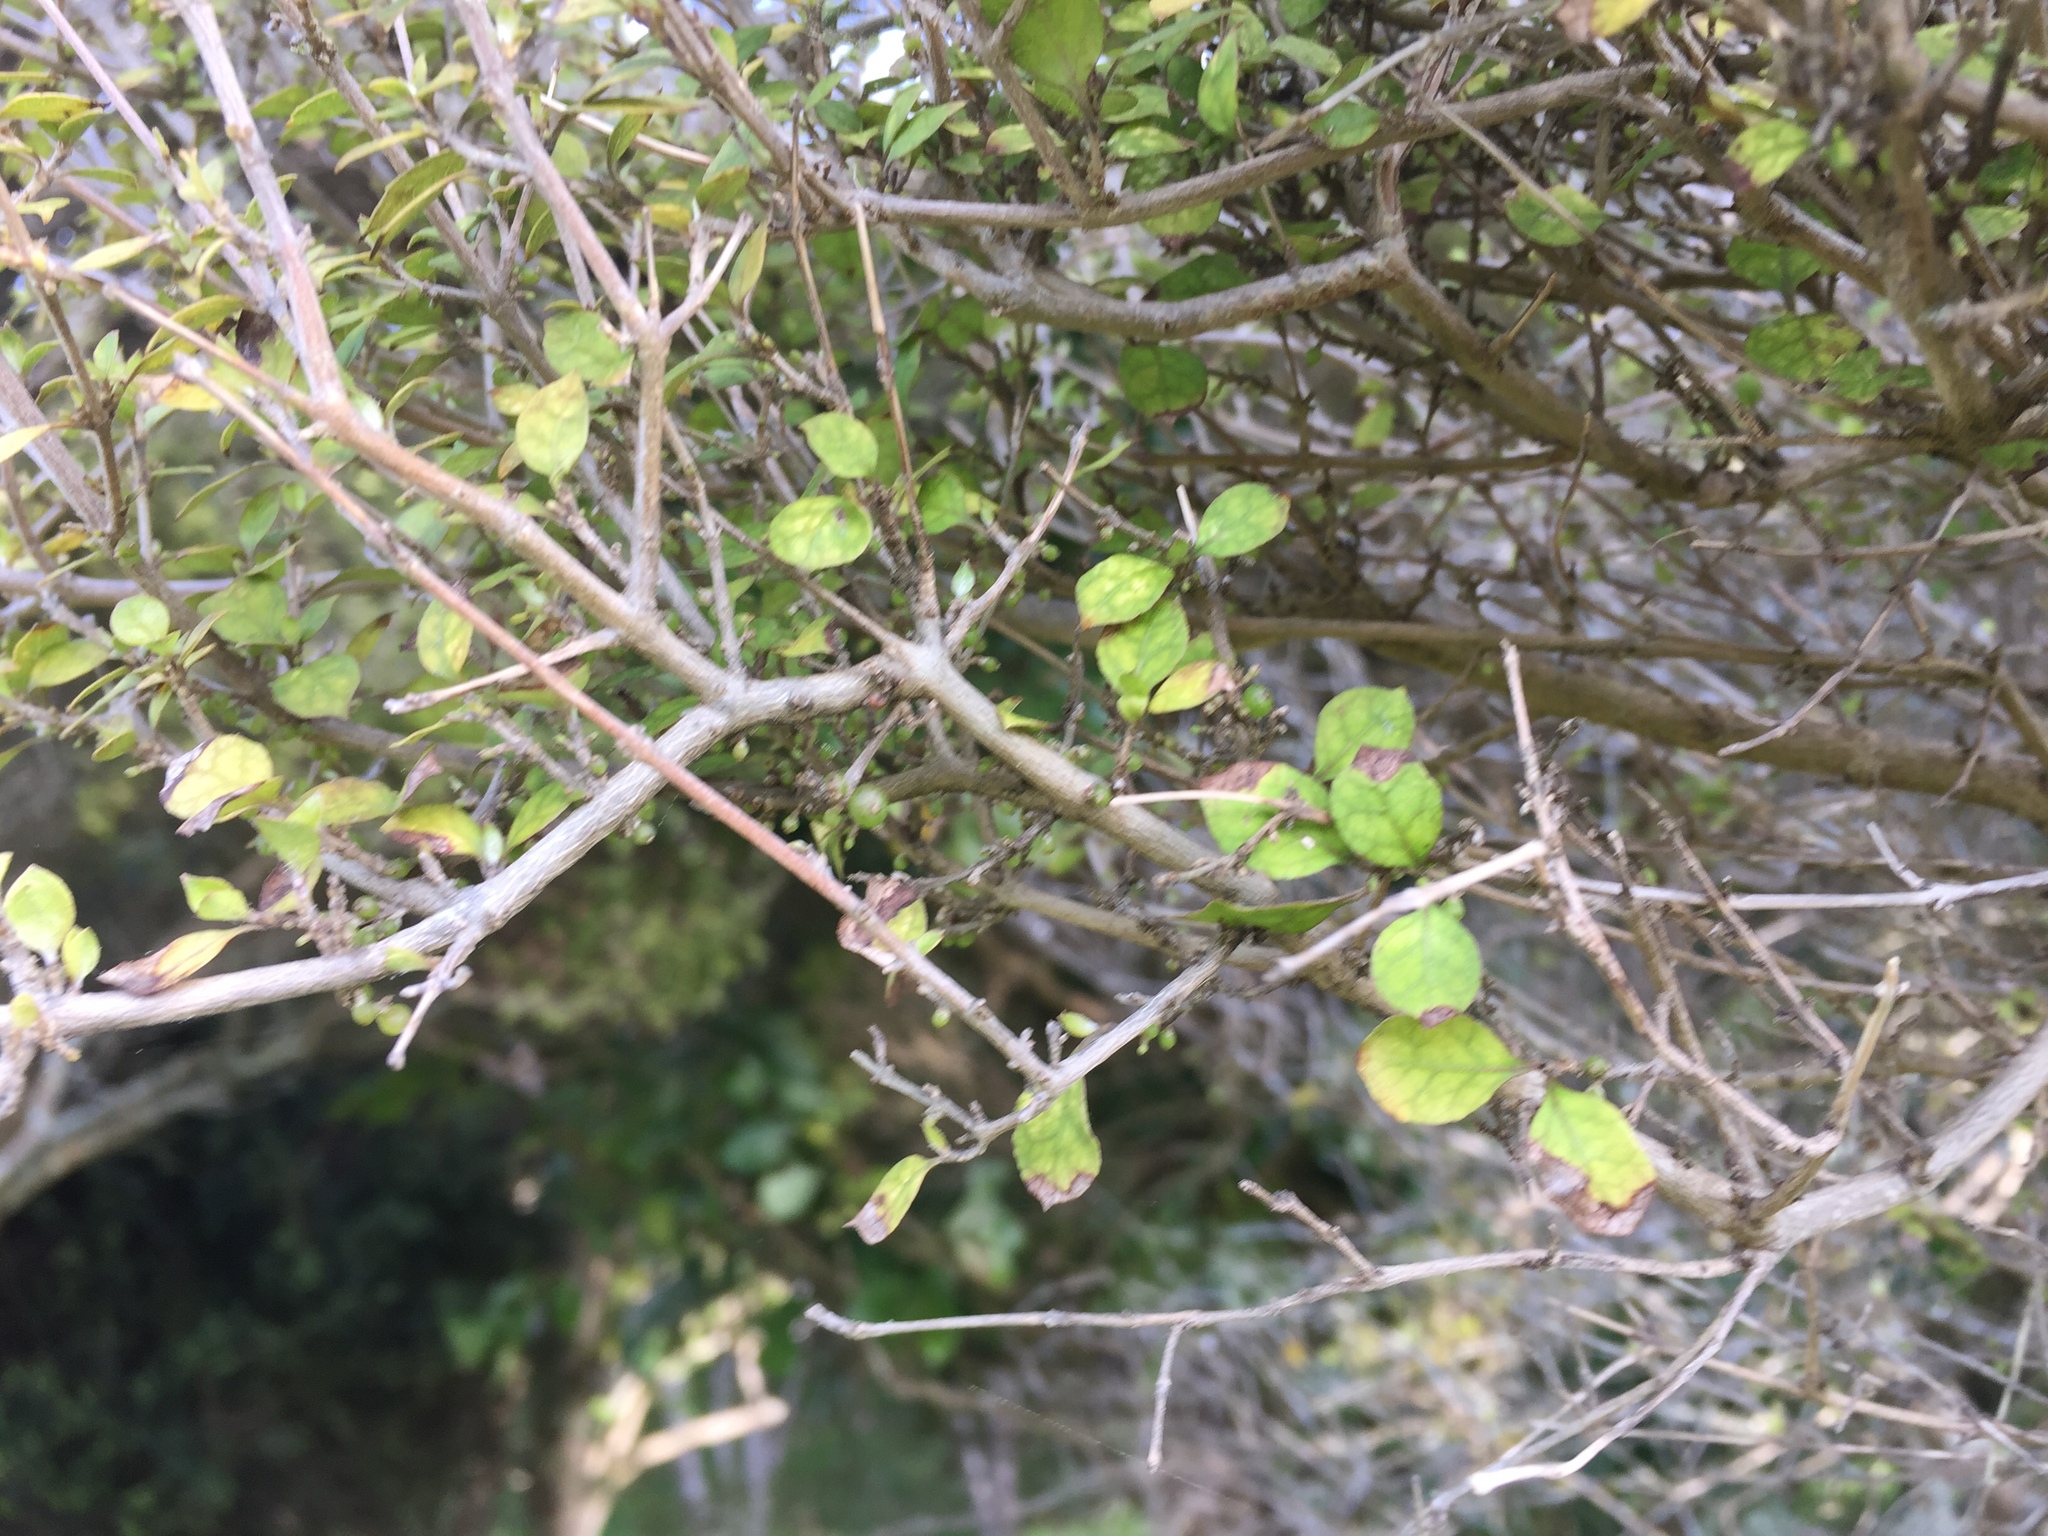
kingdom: Plantae
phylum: Tracheophyta
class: Magnoliopsida
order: Gentianales
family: Rubiaceae
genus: Coprosma
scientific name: Coprosma areolata
